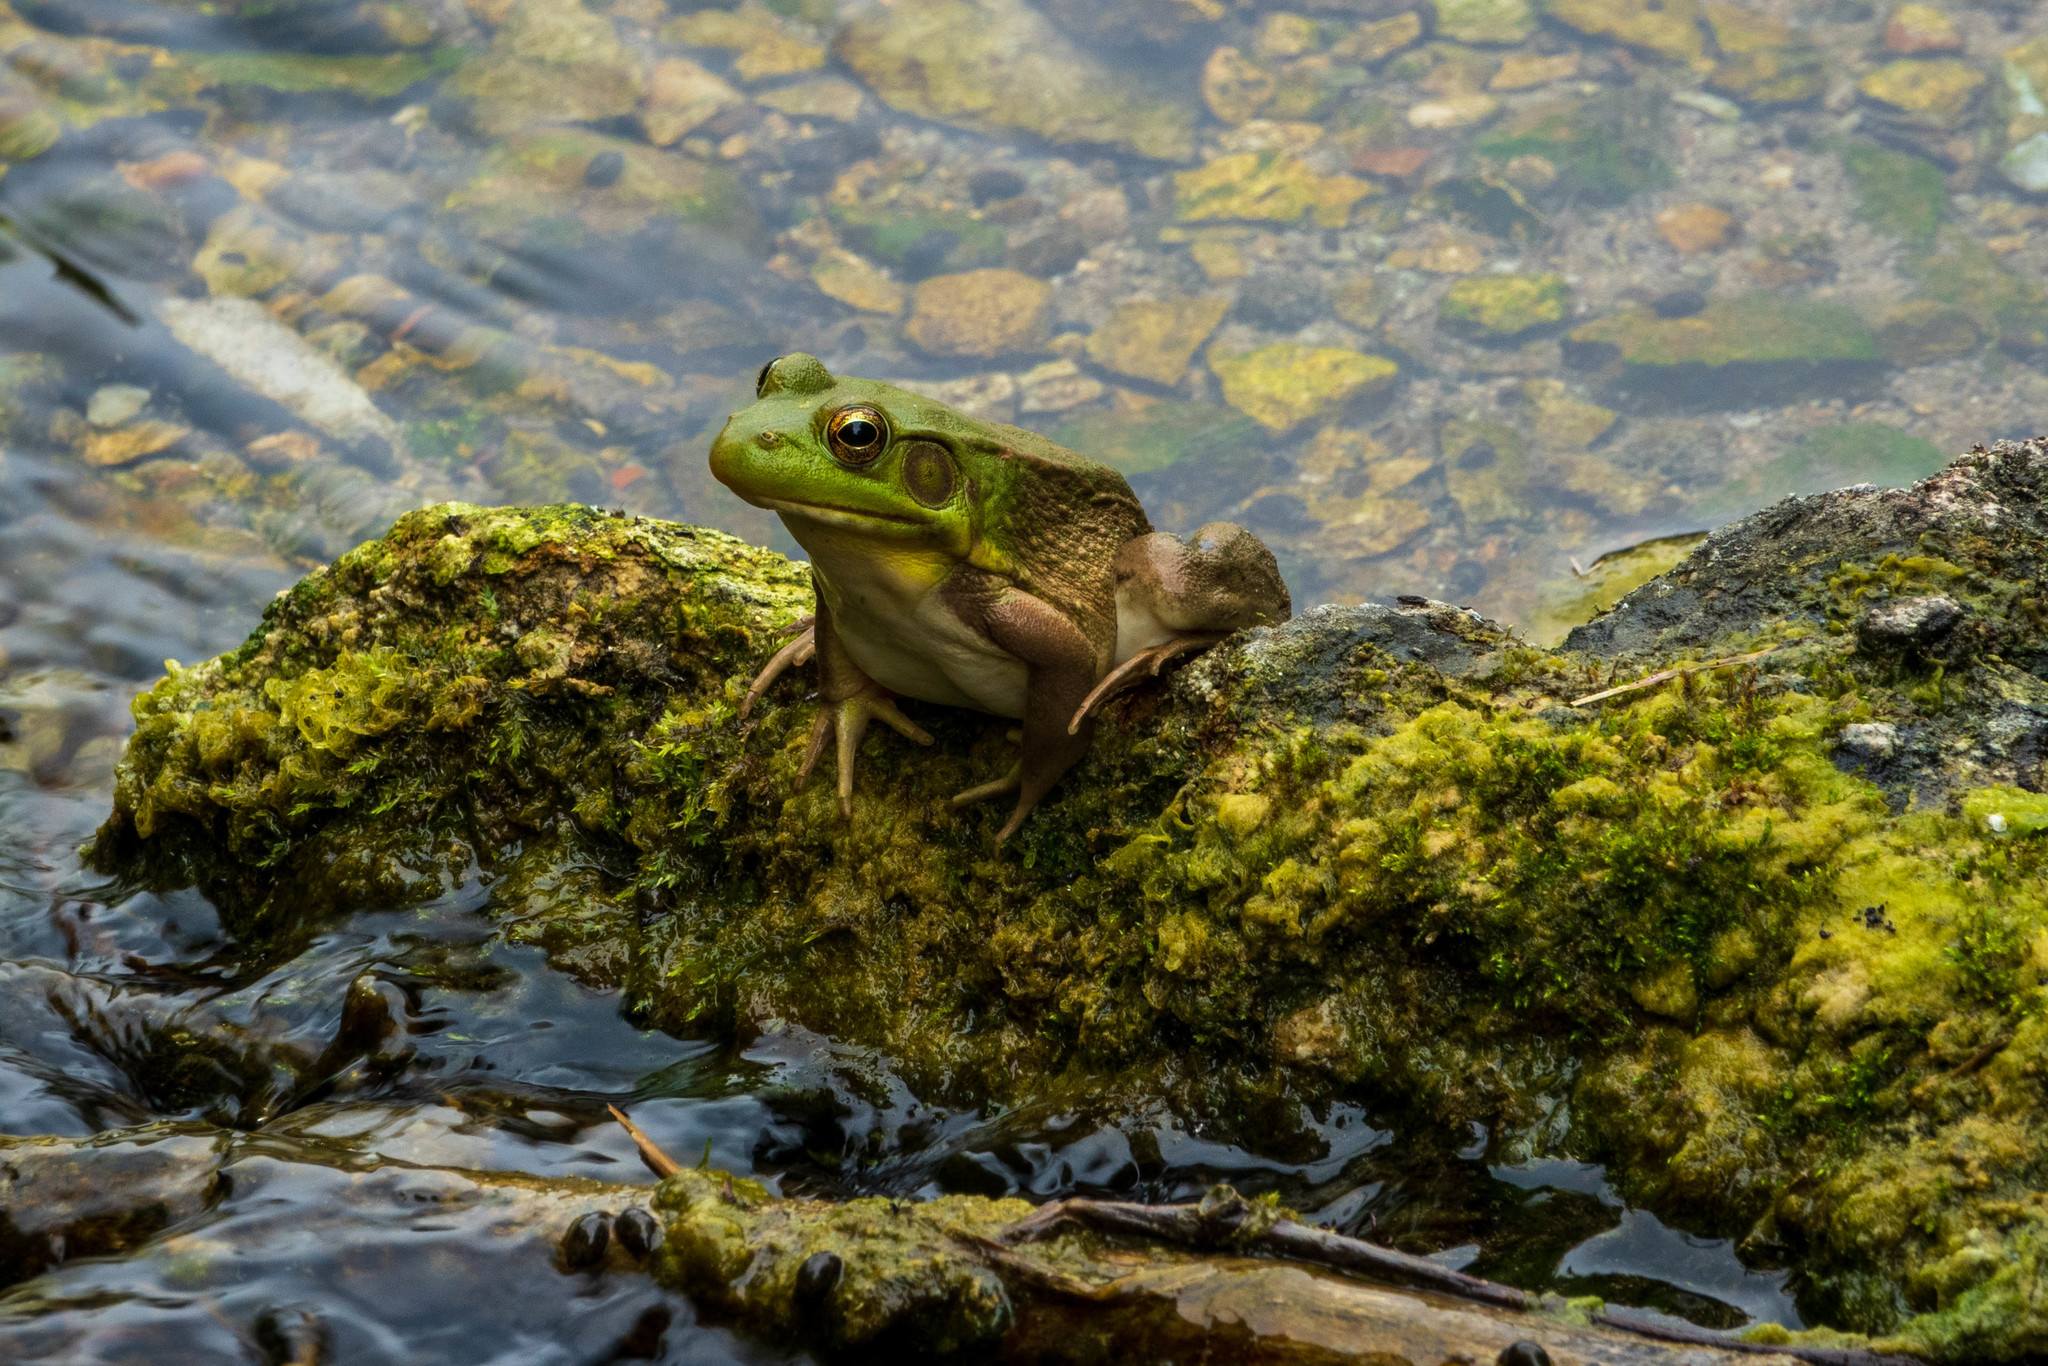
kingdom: Animalia
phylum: Chordata
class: Amphibia
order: Anura
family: Ranidae
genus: Lithobates
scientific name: Lithobates clamitans
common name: Green frog
